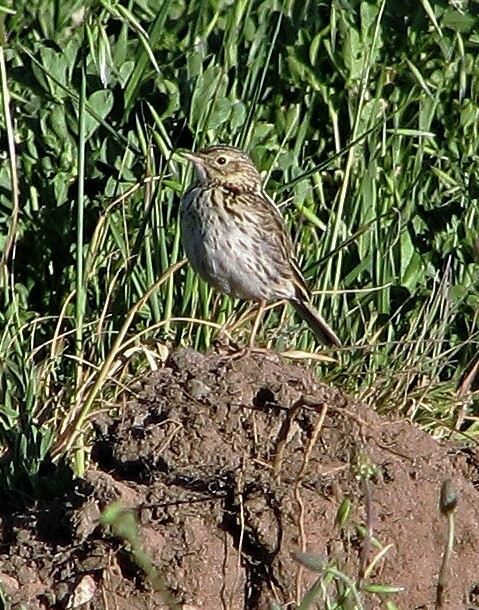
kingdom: Animalia
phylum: Chordata
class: Aves
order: Passeriformes
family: Motacillidae
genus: Anthus
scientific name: Anthus correndera
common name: Correndera pipit
